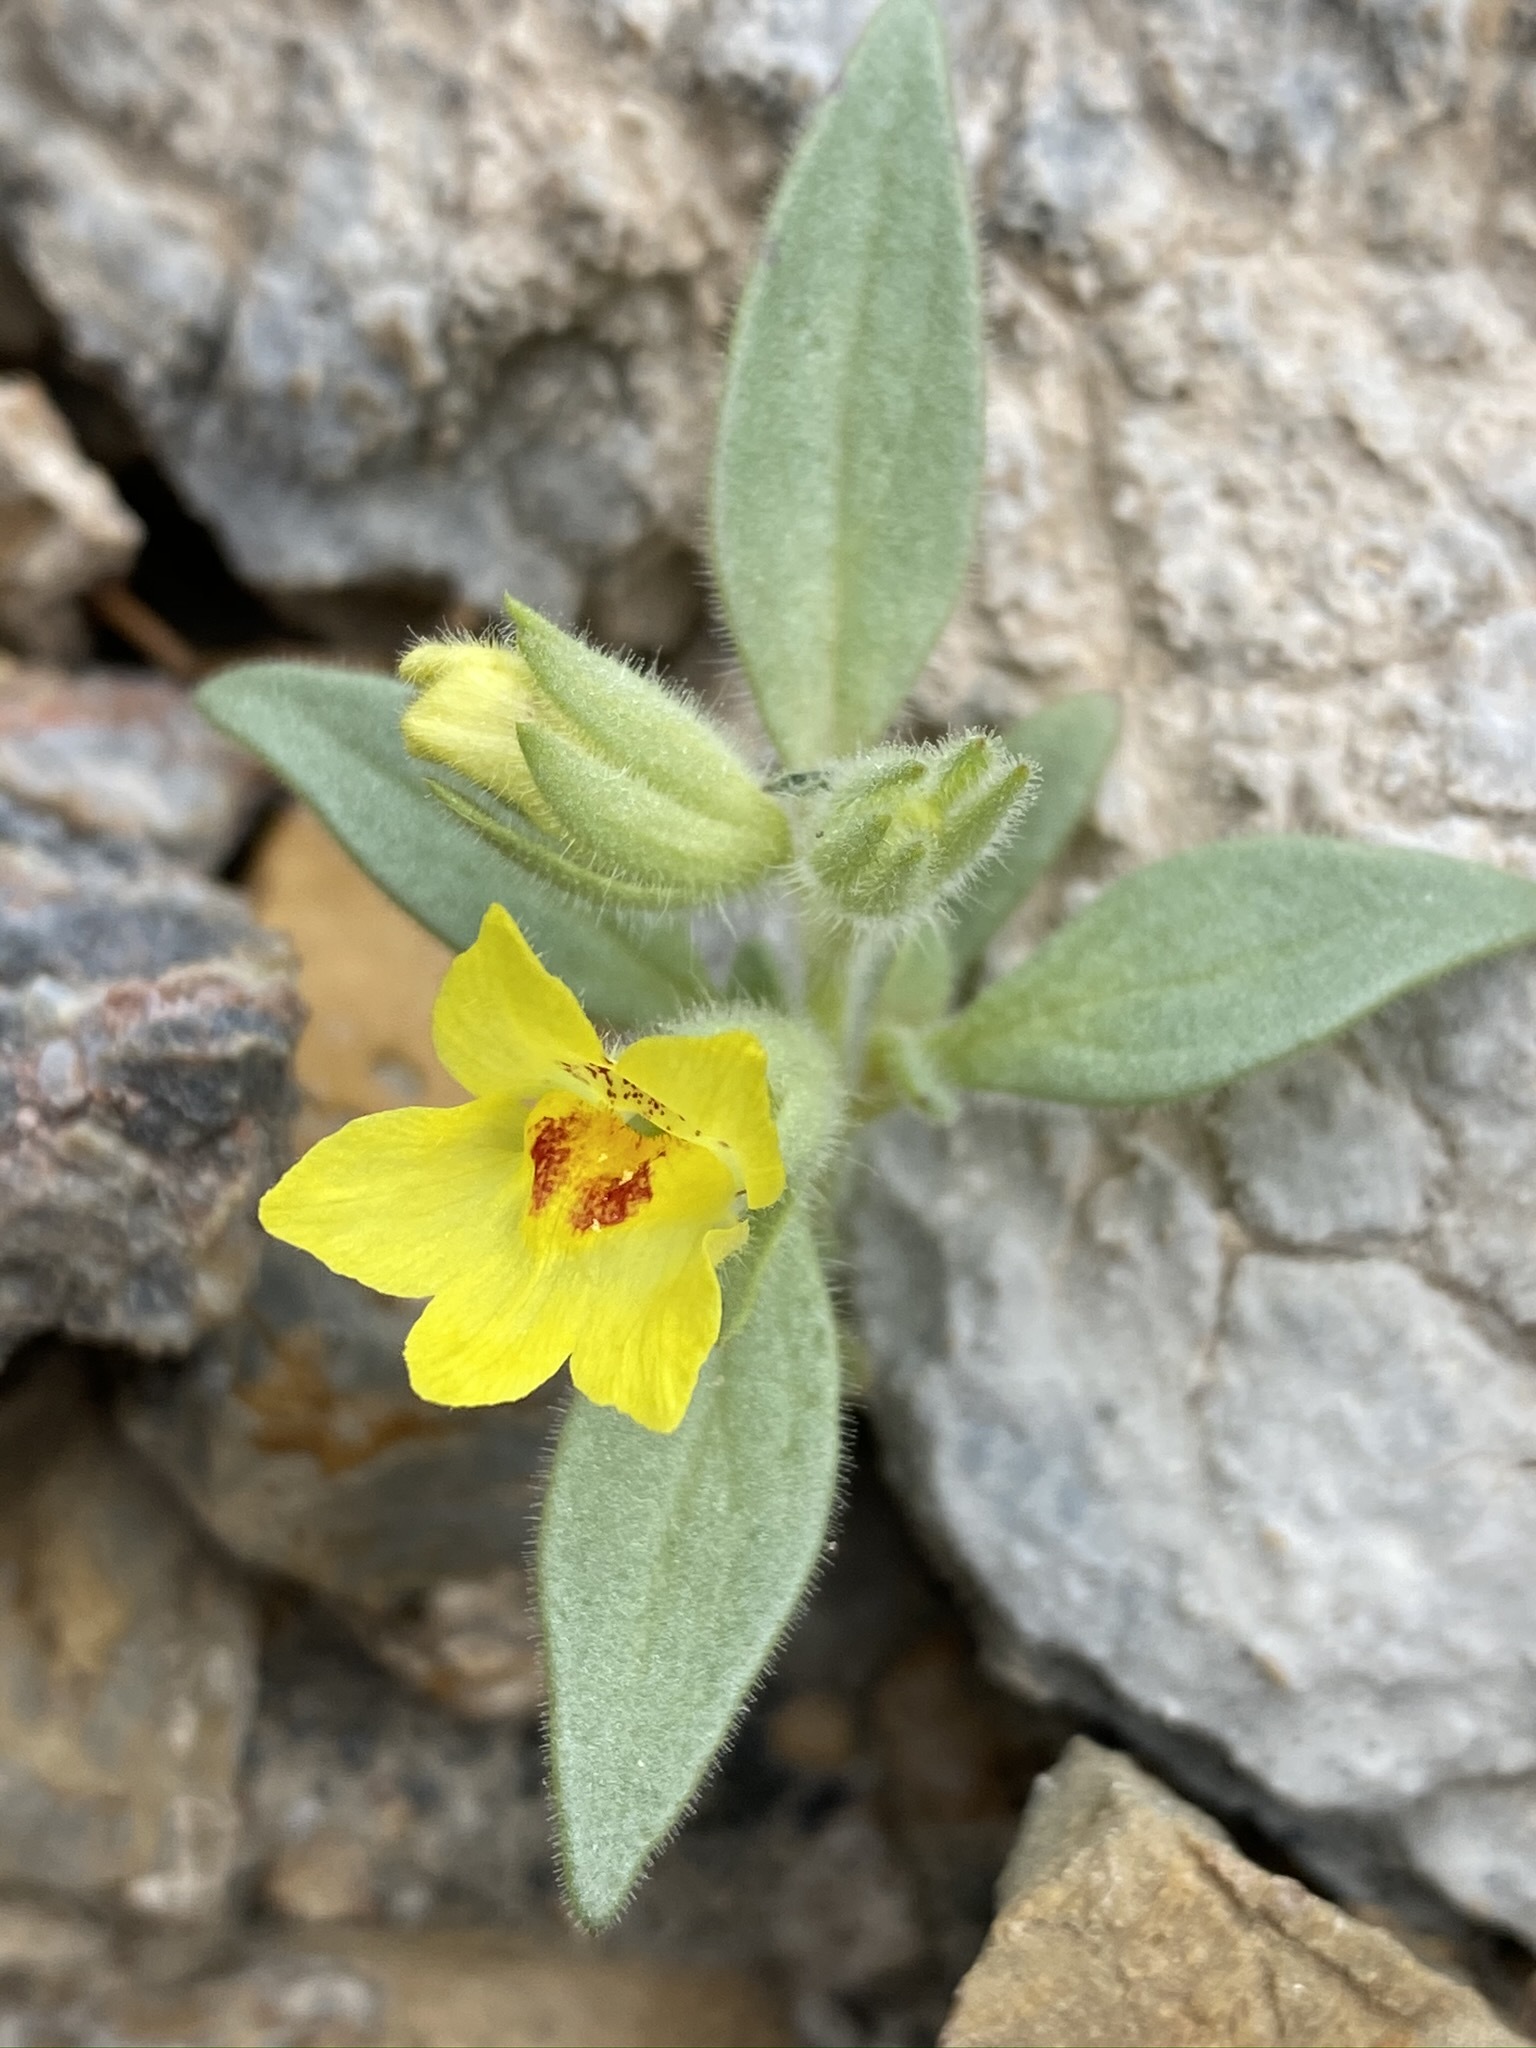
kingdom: Plantae
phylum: Tracheophyta
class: Magnoliopsida
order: Lamiales
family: Plantaginaceae
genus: Mohavea
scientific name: Mohavea breviflora
